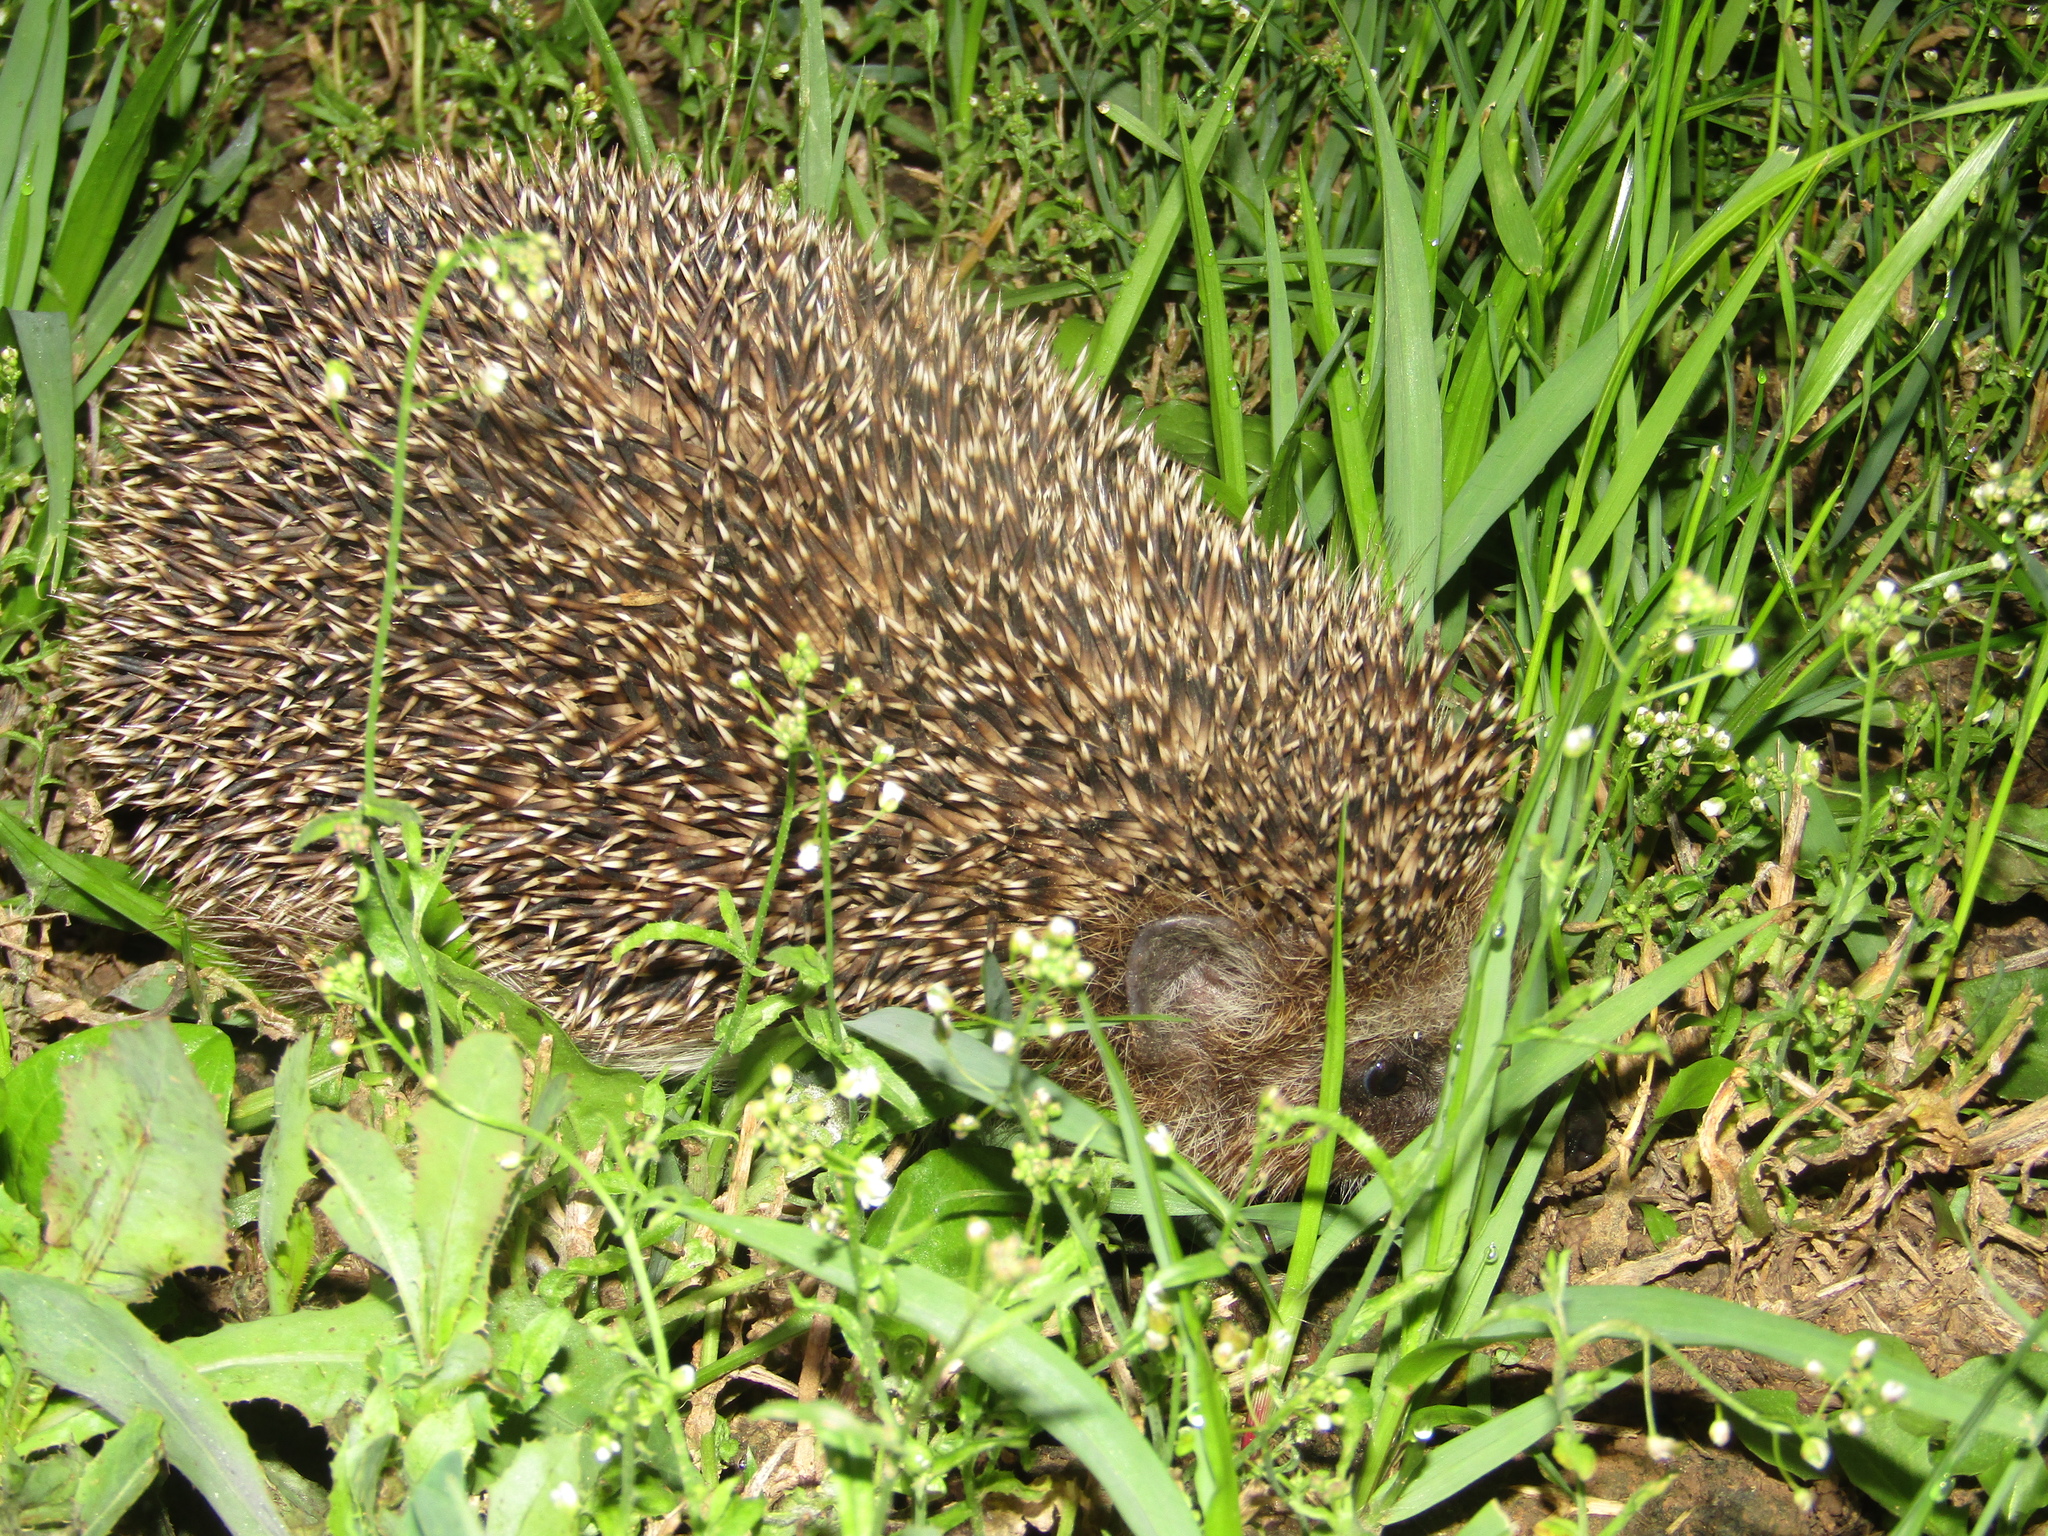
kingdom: Animalia
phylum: Chordata
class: Mammalia
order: Erinaceomorpha
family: Erinaceidae
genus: Erinaceus
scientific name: Erinaceus roumanicus
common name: Northern white-breasted hedgehog
